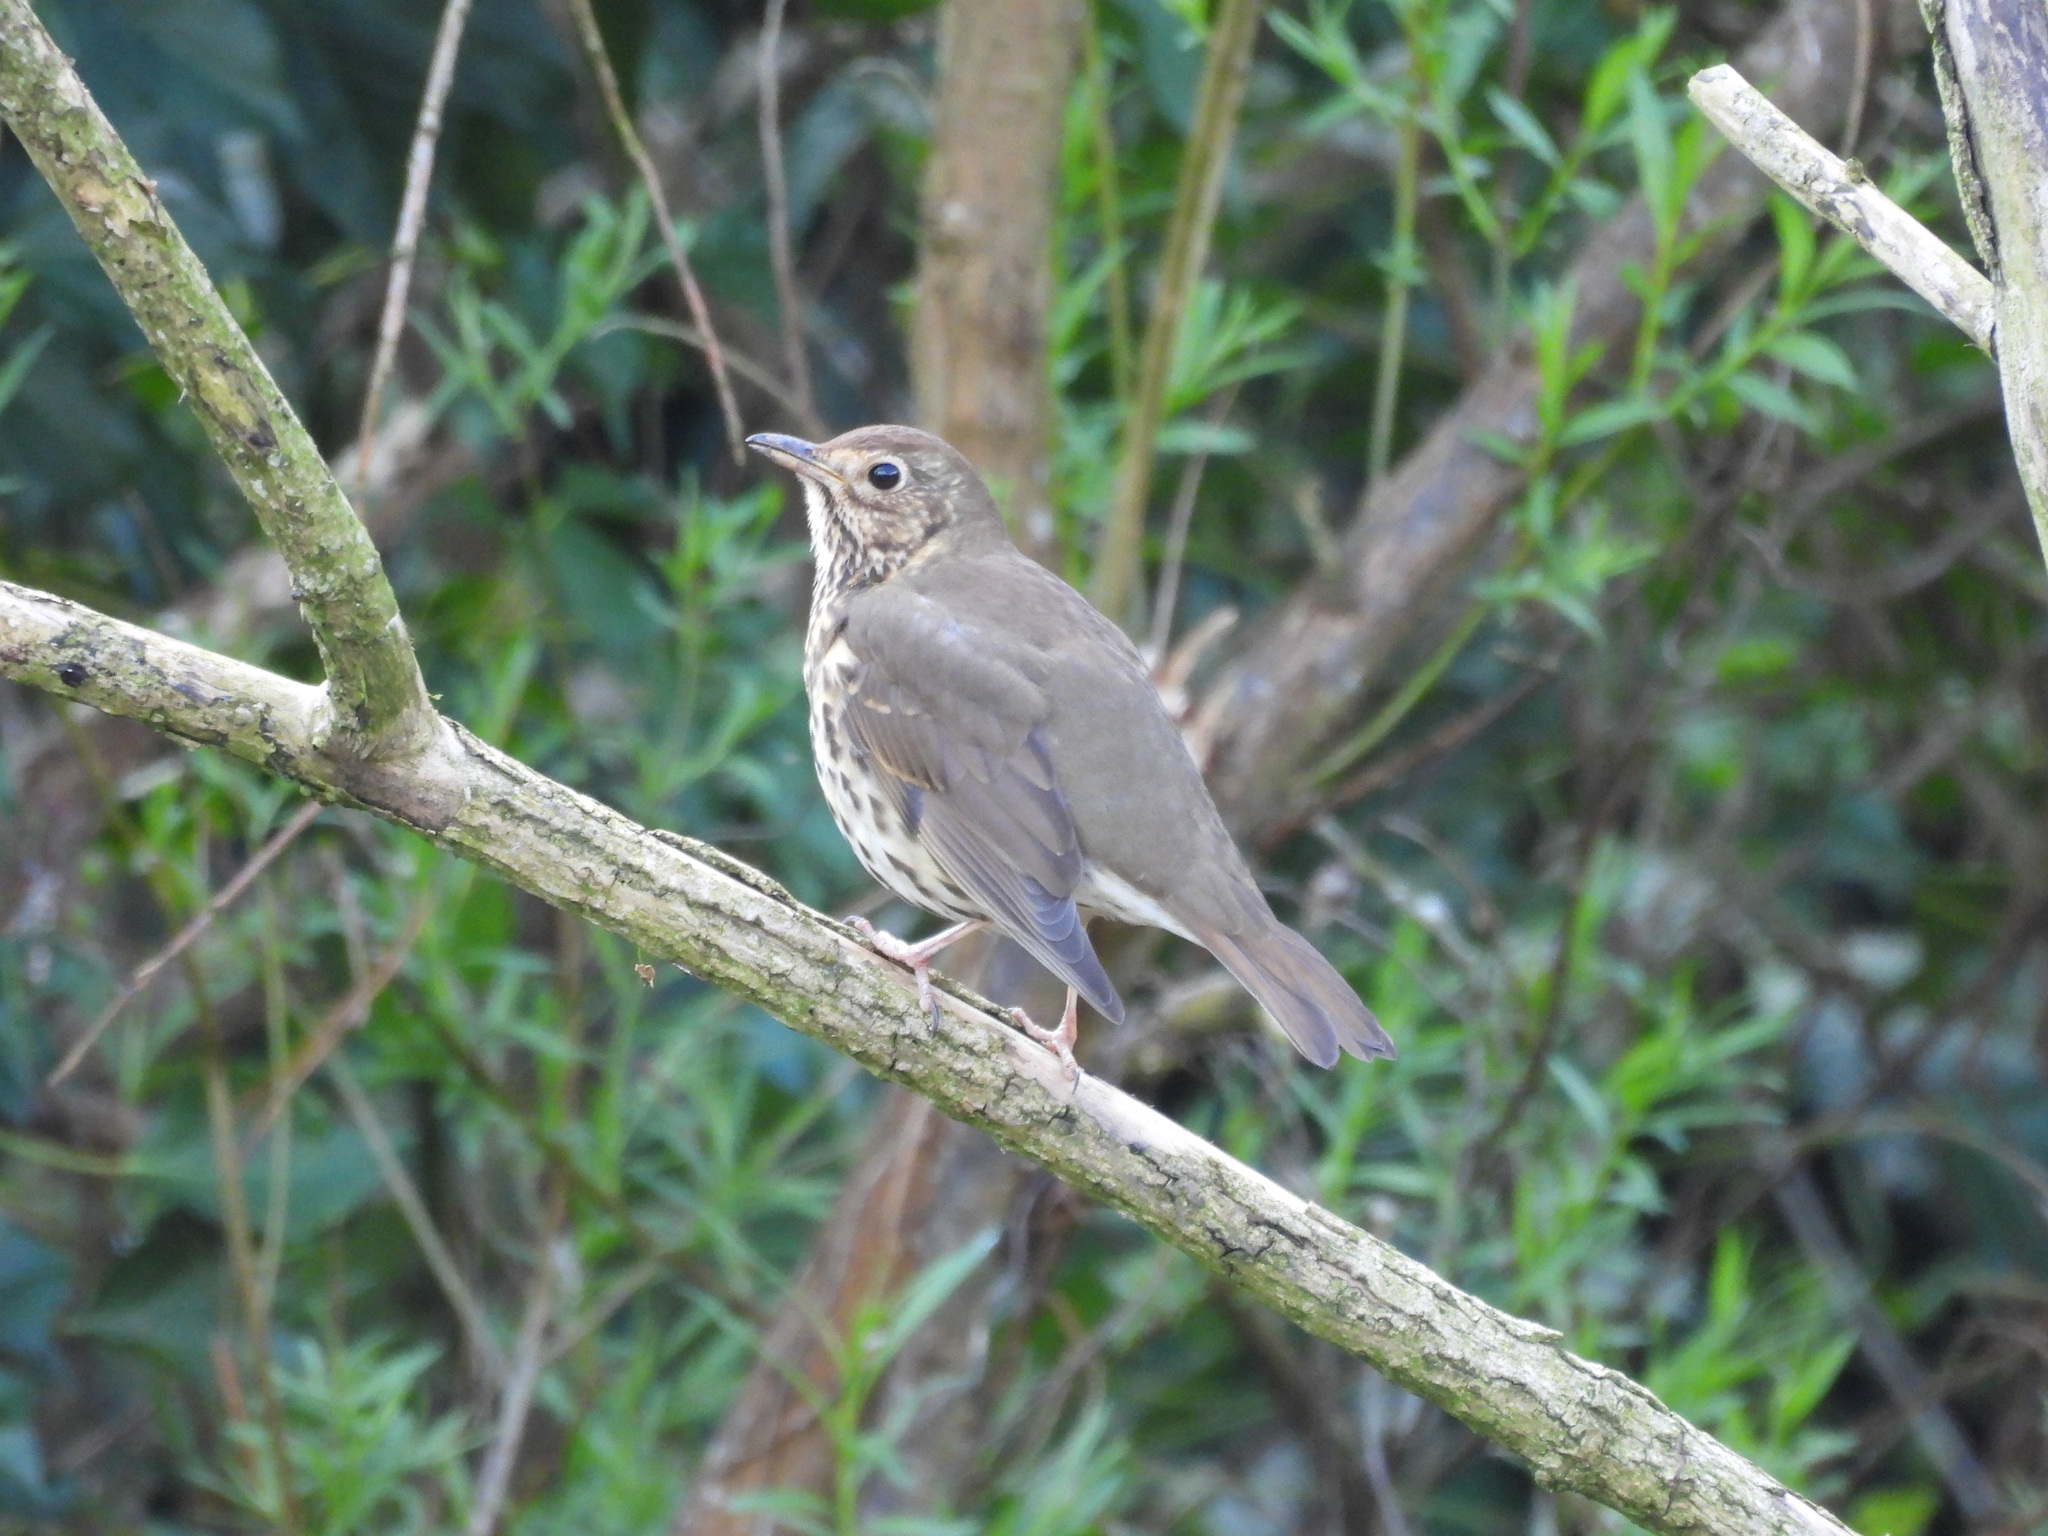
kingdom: Animalia
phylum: Chordata
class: Aves
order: Passeriformes
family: Turdidae
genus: Turdus
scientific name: Turdus philomelos
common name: Song thrush
